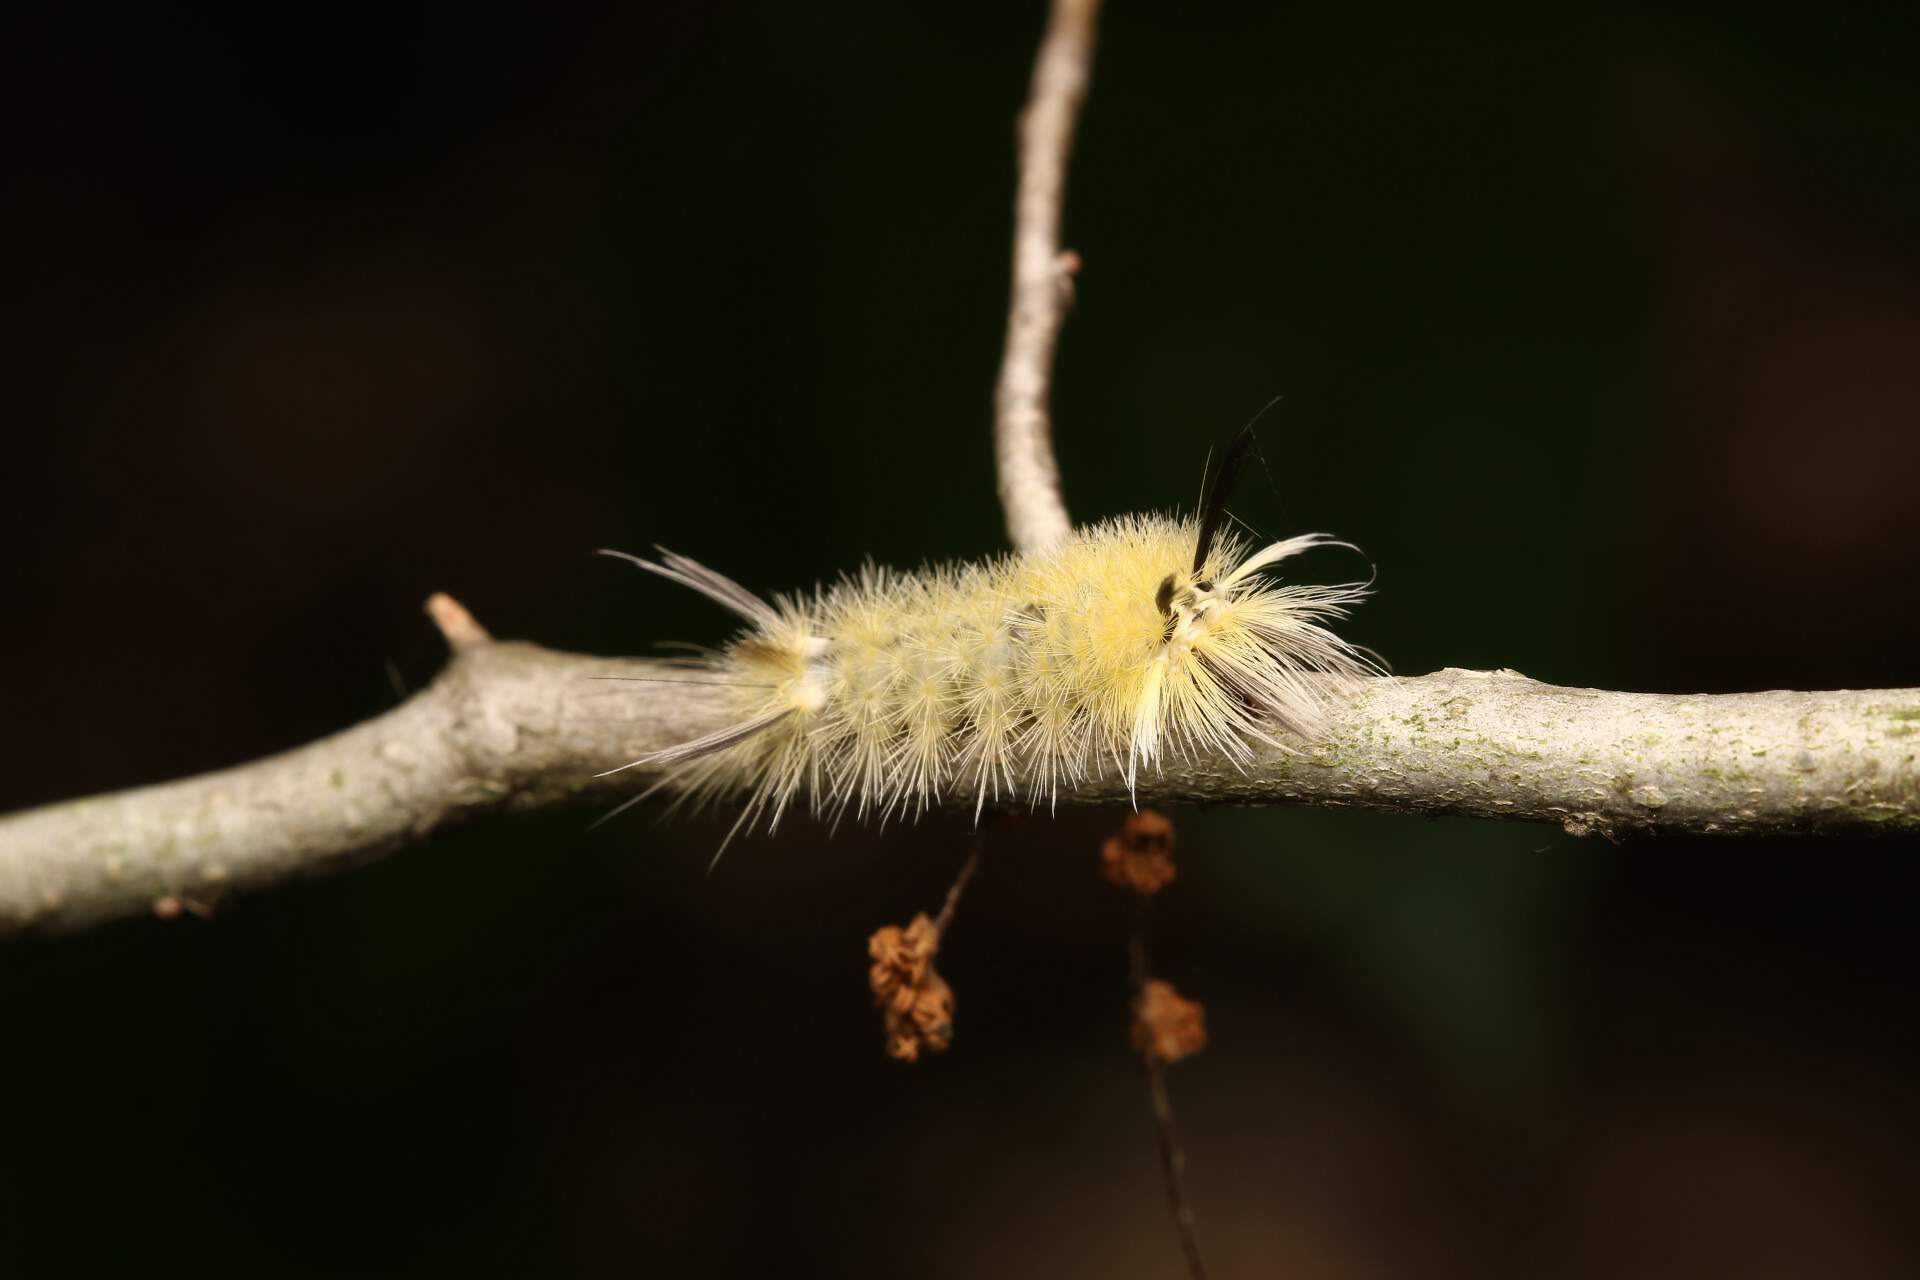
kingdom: Animalia
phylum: Arthropoda
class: Insecta
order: Lepidoptera
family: Erebidae
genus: Halysidota
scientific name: Halysidota tessellaris
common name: Banded tussock moth
